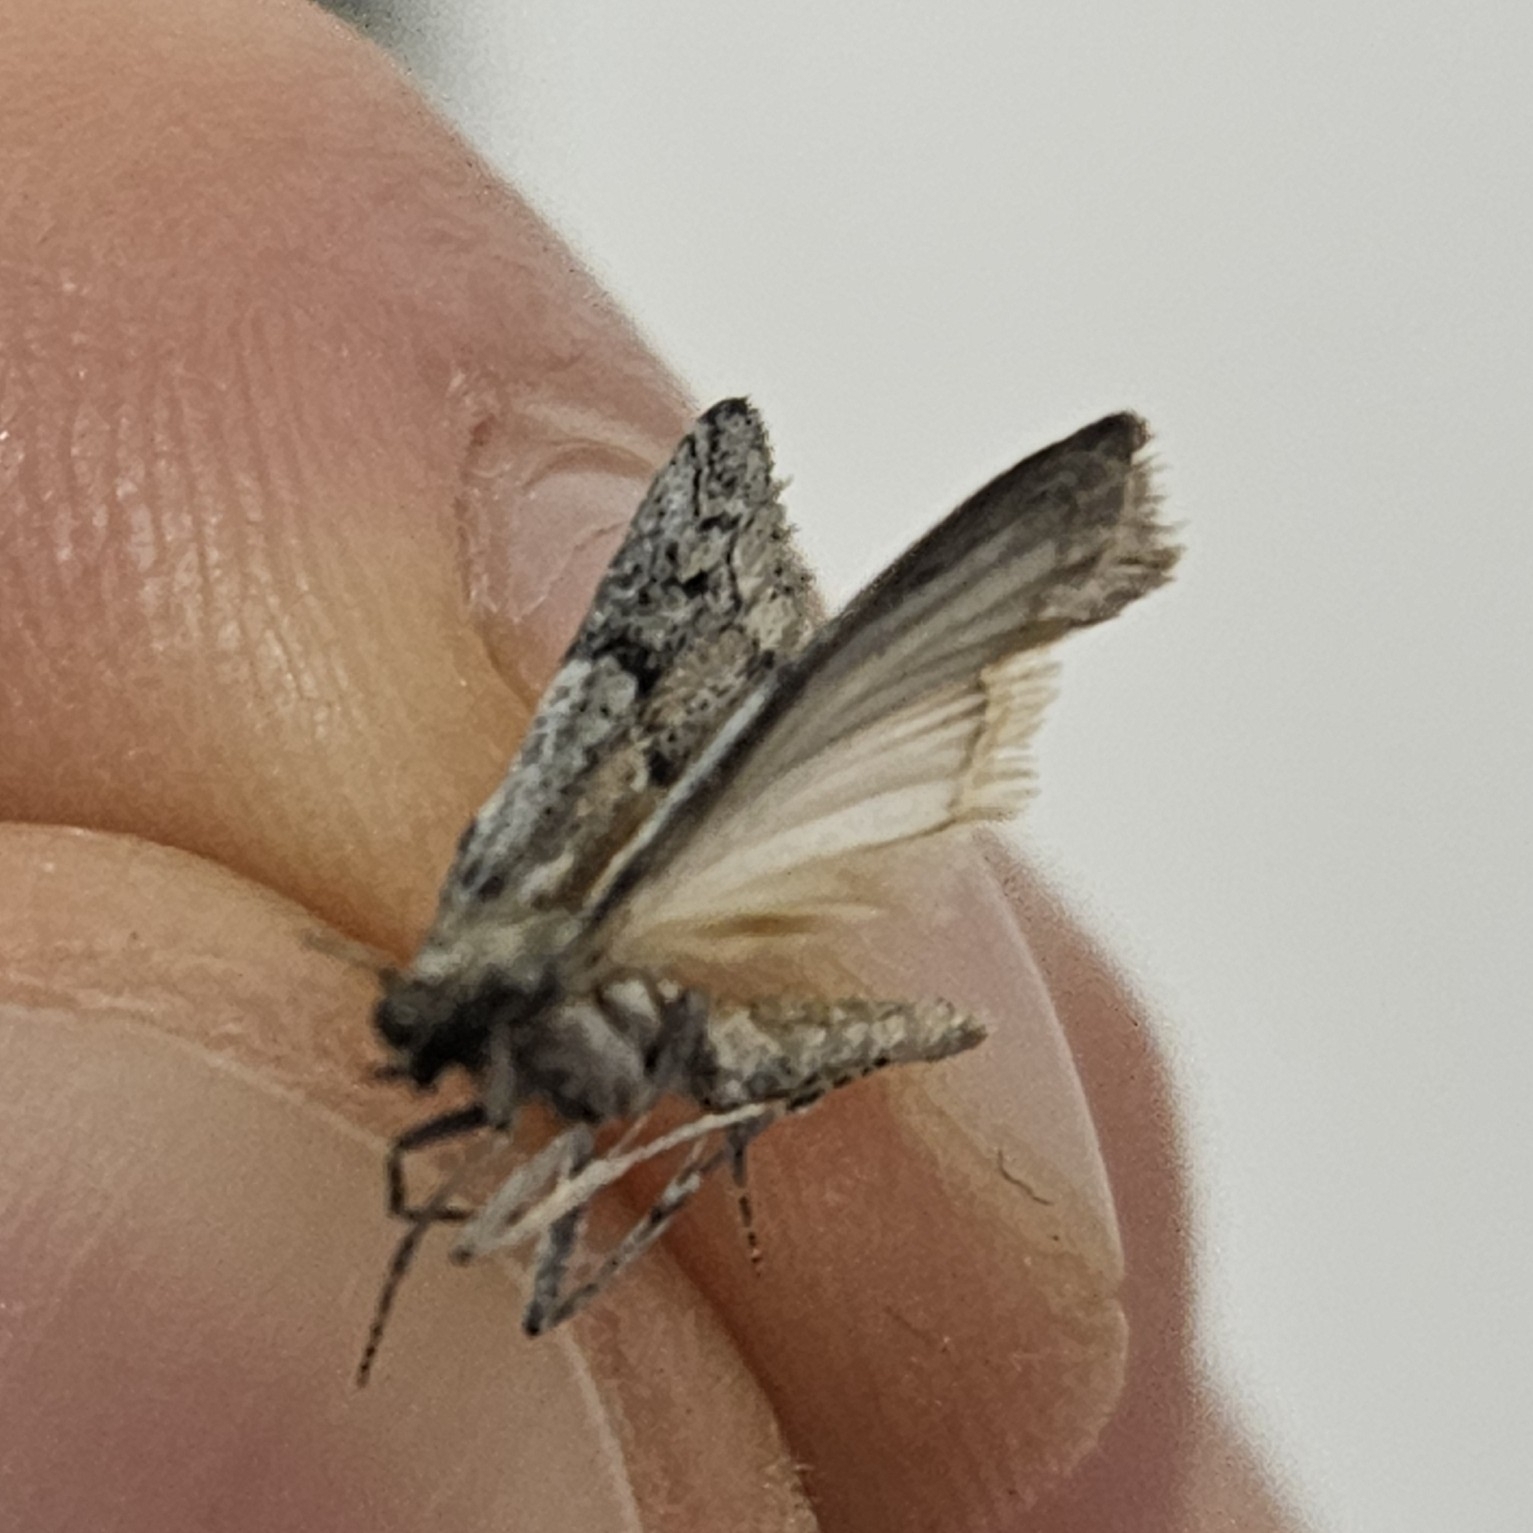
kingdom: Animalia
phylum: Arthropoda
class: Insecta
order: Lepidoptera
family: Pyralidae
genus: Vitula
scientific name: Vitula serratilineella
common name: Honey-comb knot-horn
